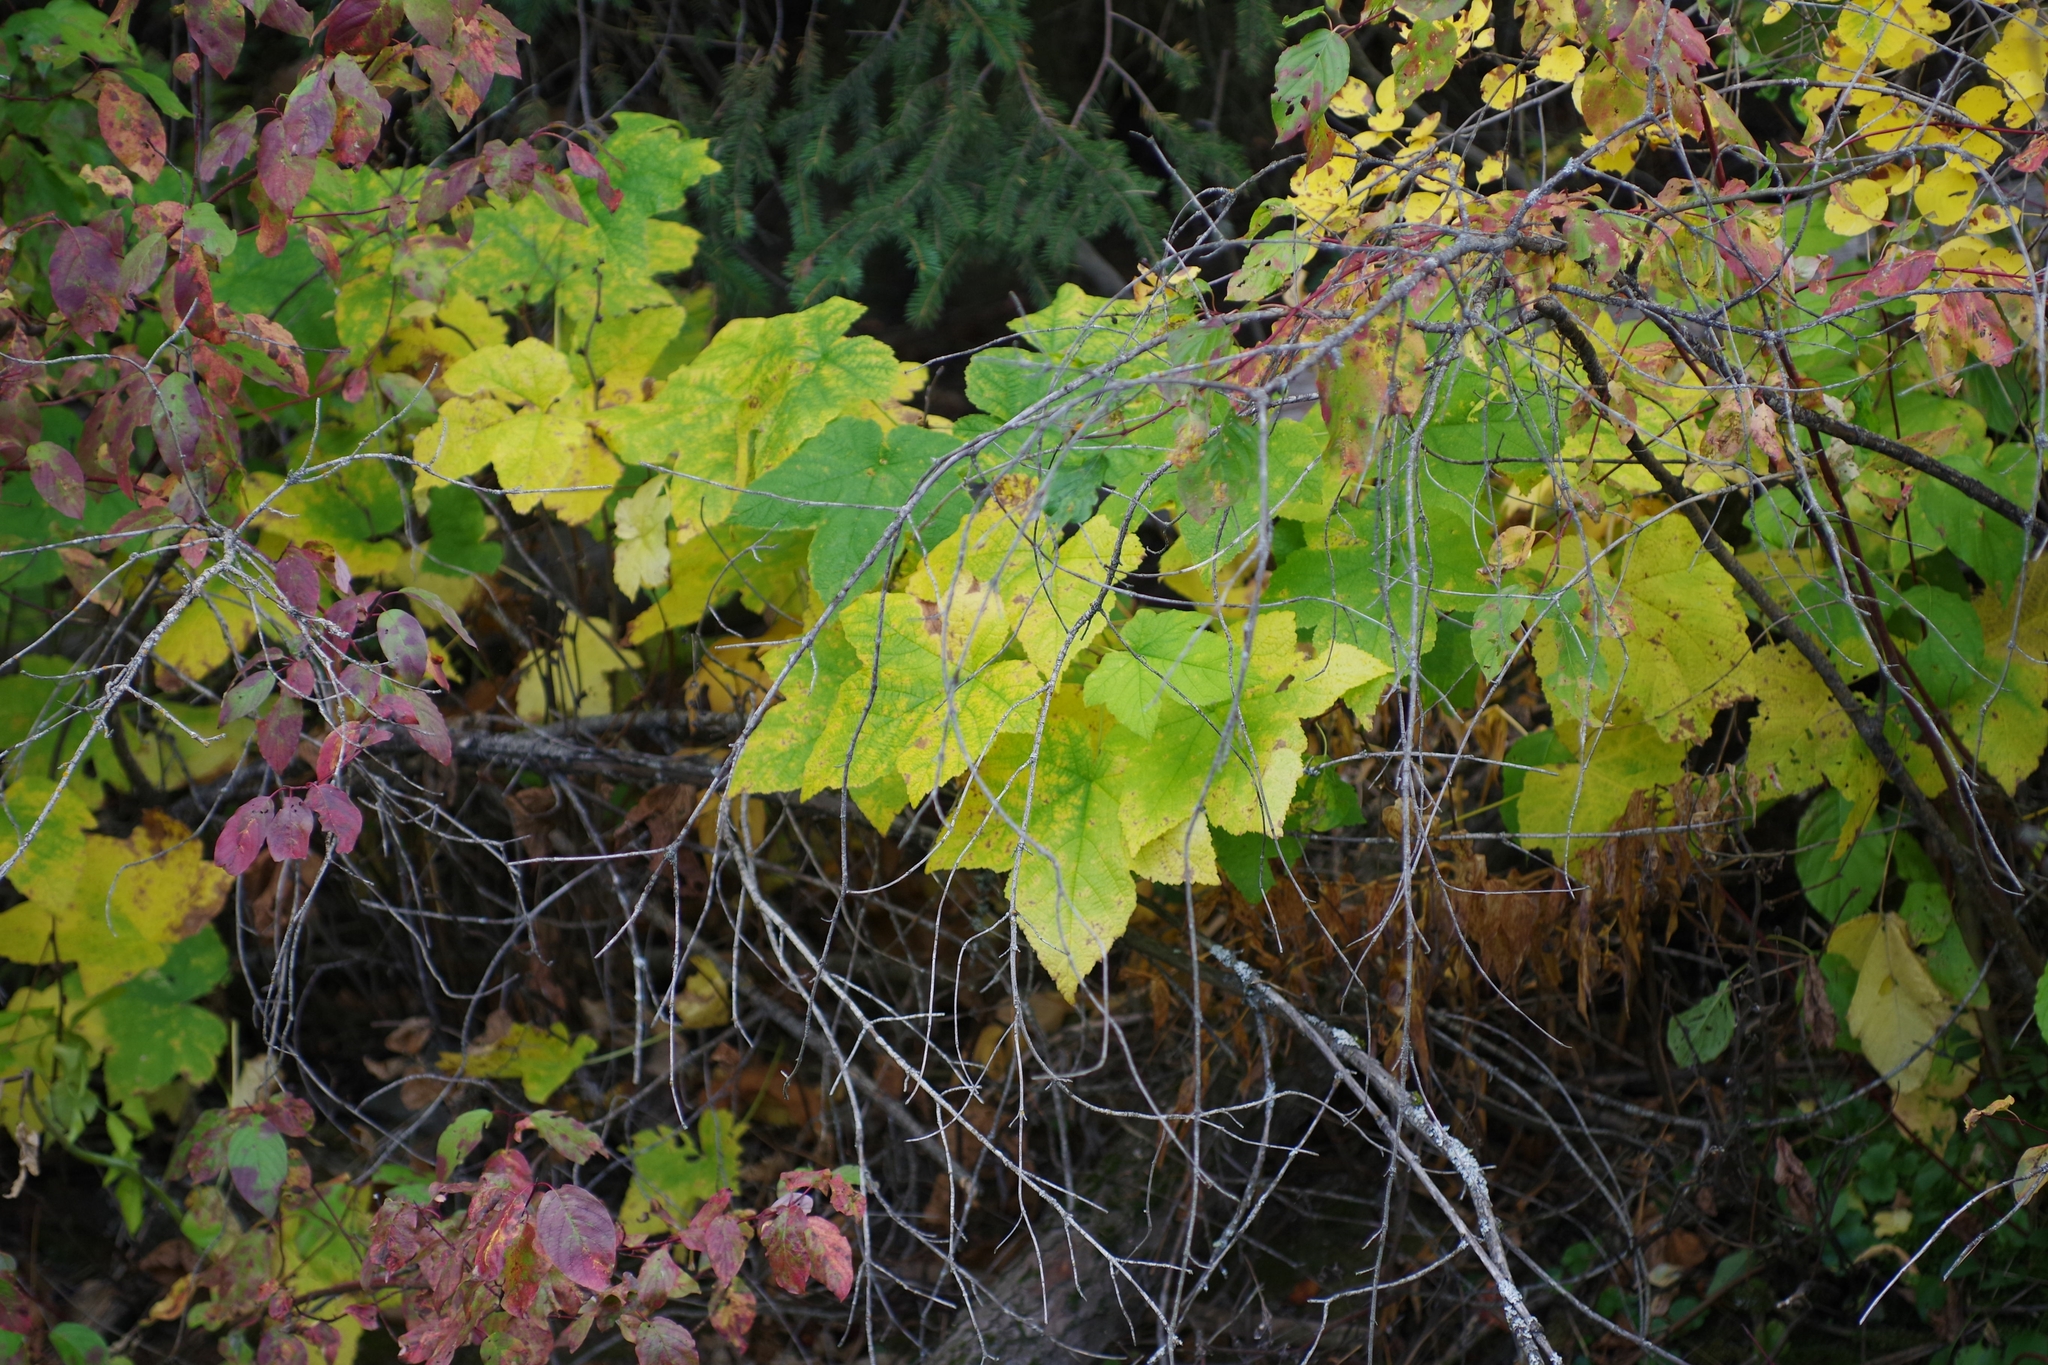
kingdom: Plantae
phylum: Tracheophyta
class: Magnoliopsida
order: Rosales
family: Rosaceae
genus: Rubus
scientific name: Rubus parviflorus
